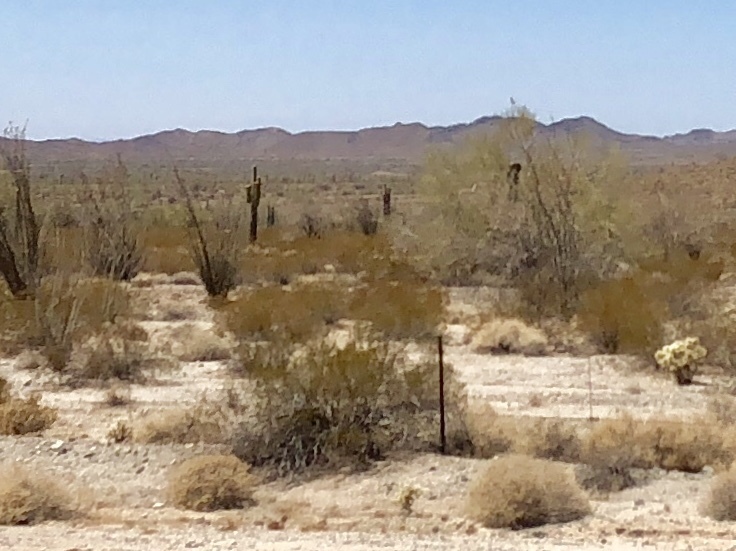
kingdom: Plantae
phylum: Tracheophyta
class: Magnoliopsida
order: Zygophyllales
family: Zygophyllaceae
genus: Larrea
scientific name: Larrea tridentata
